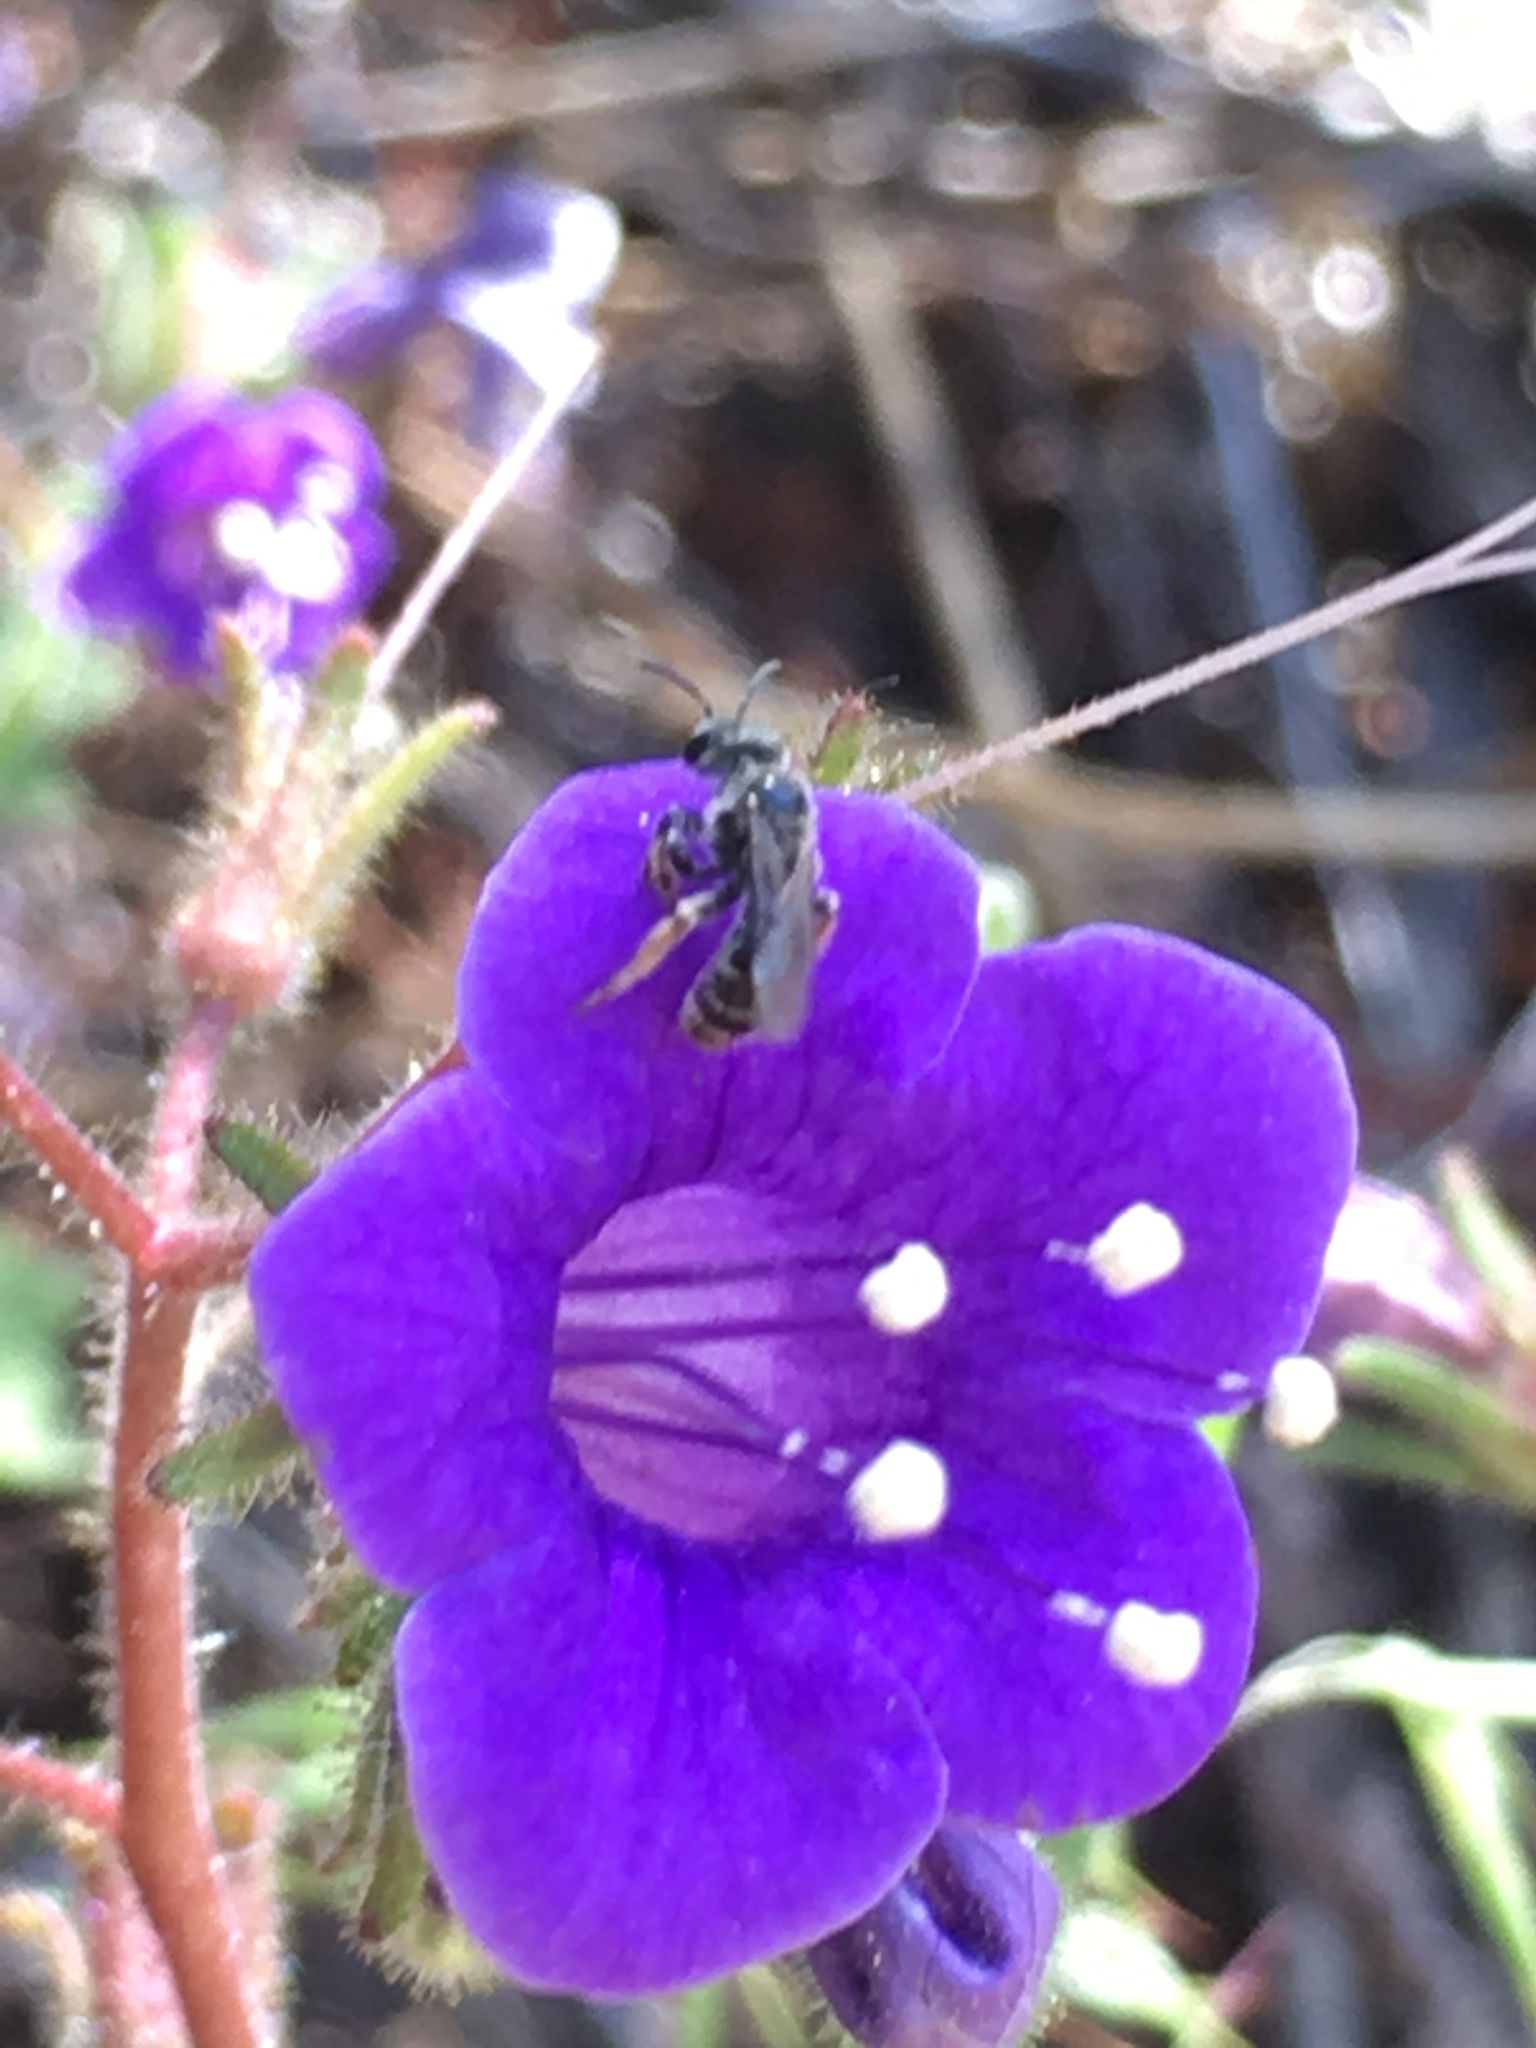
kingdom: Plantae
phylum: Tracheophyta
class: Magnoliopsida
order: Boraginales
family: Hydrophyllaceae
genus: Phacelia
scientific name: Phacelia minor
